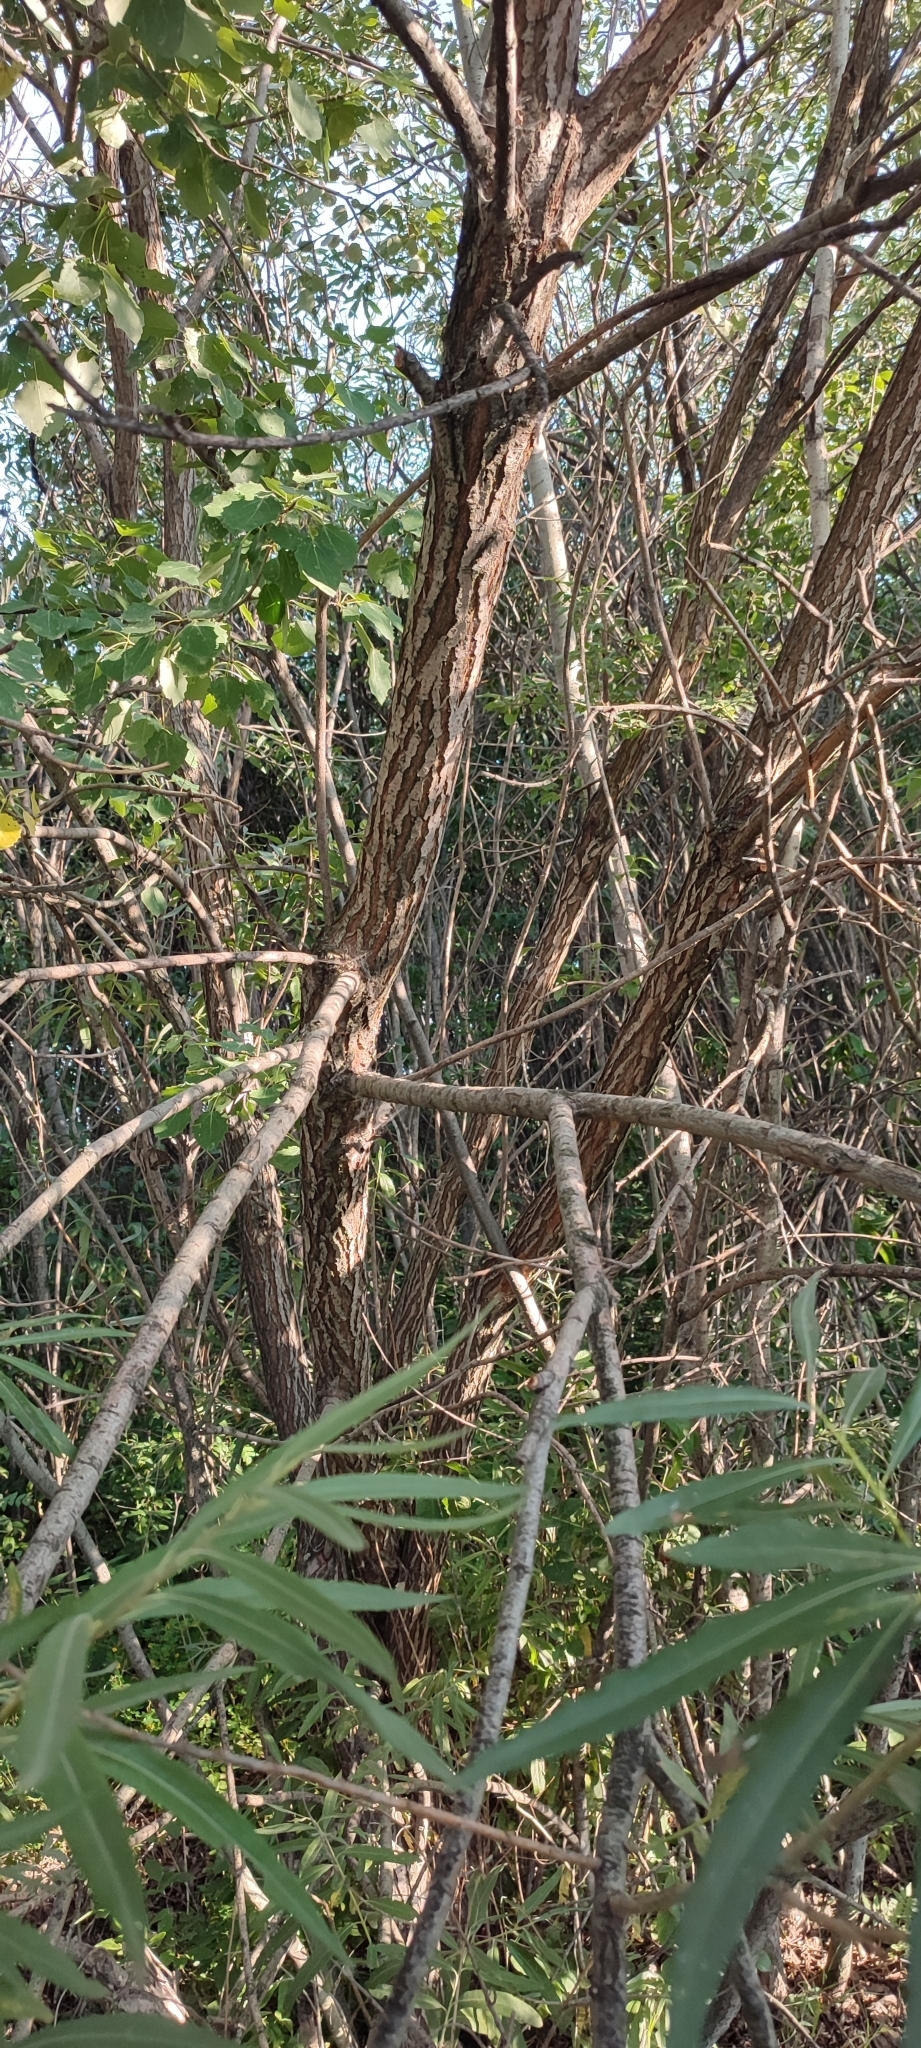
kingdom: Plantae
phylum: Tracheophyta
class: Magnoliopsida
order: Malpighiales
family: Salicaceae
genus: Salix
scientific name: Salix viminalis
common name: Osier
